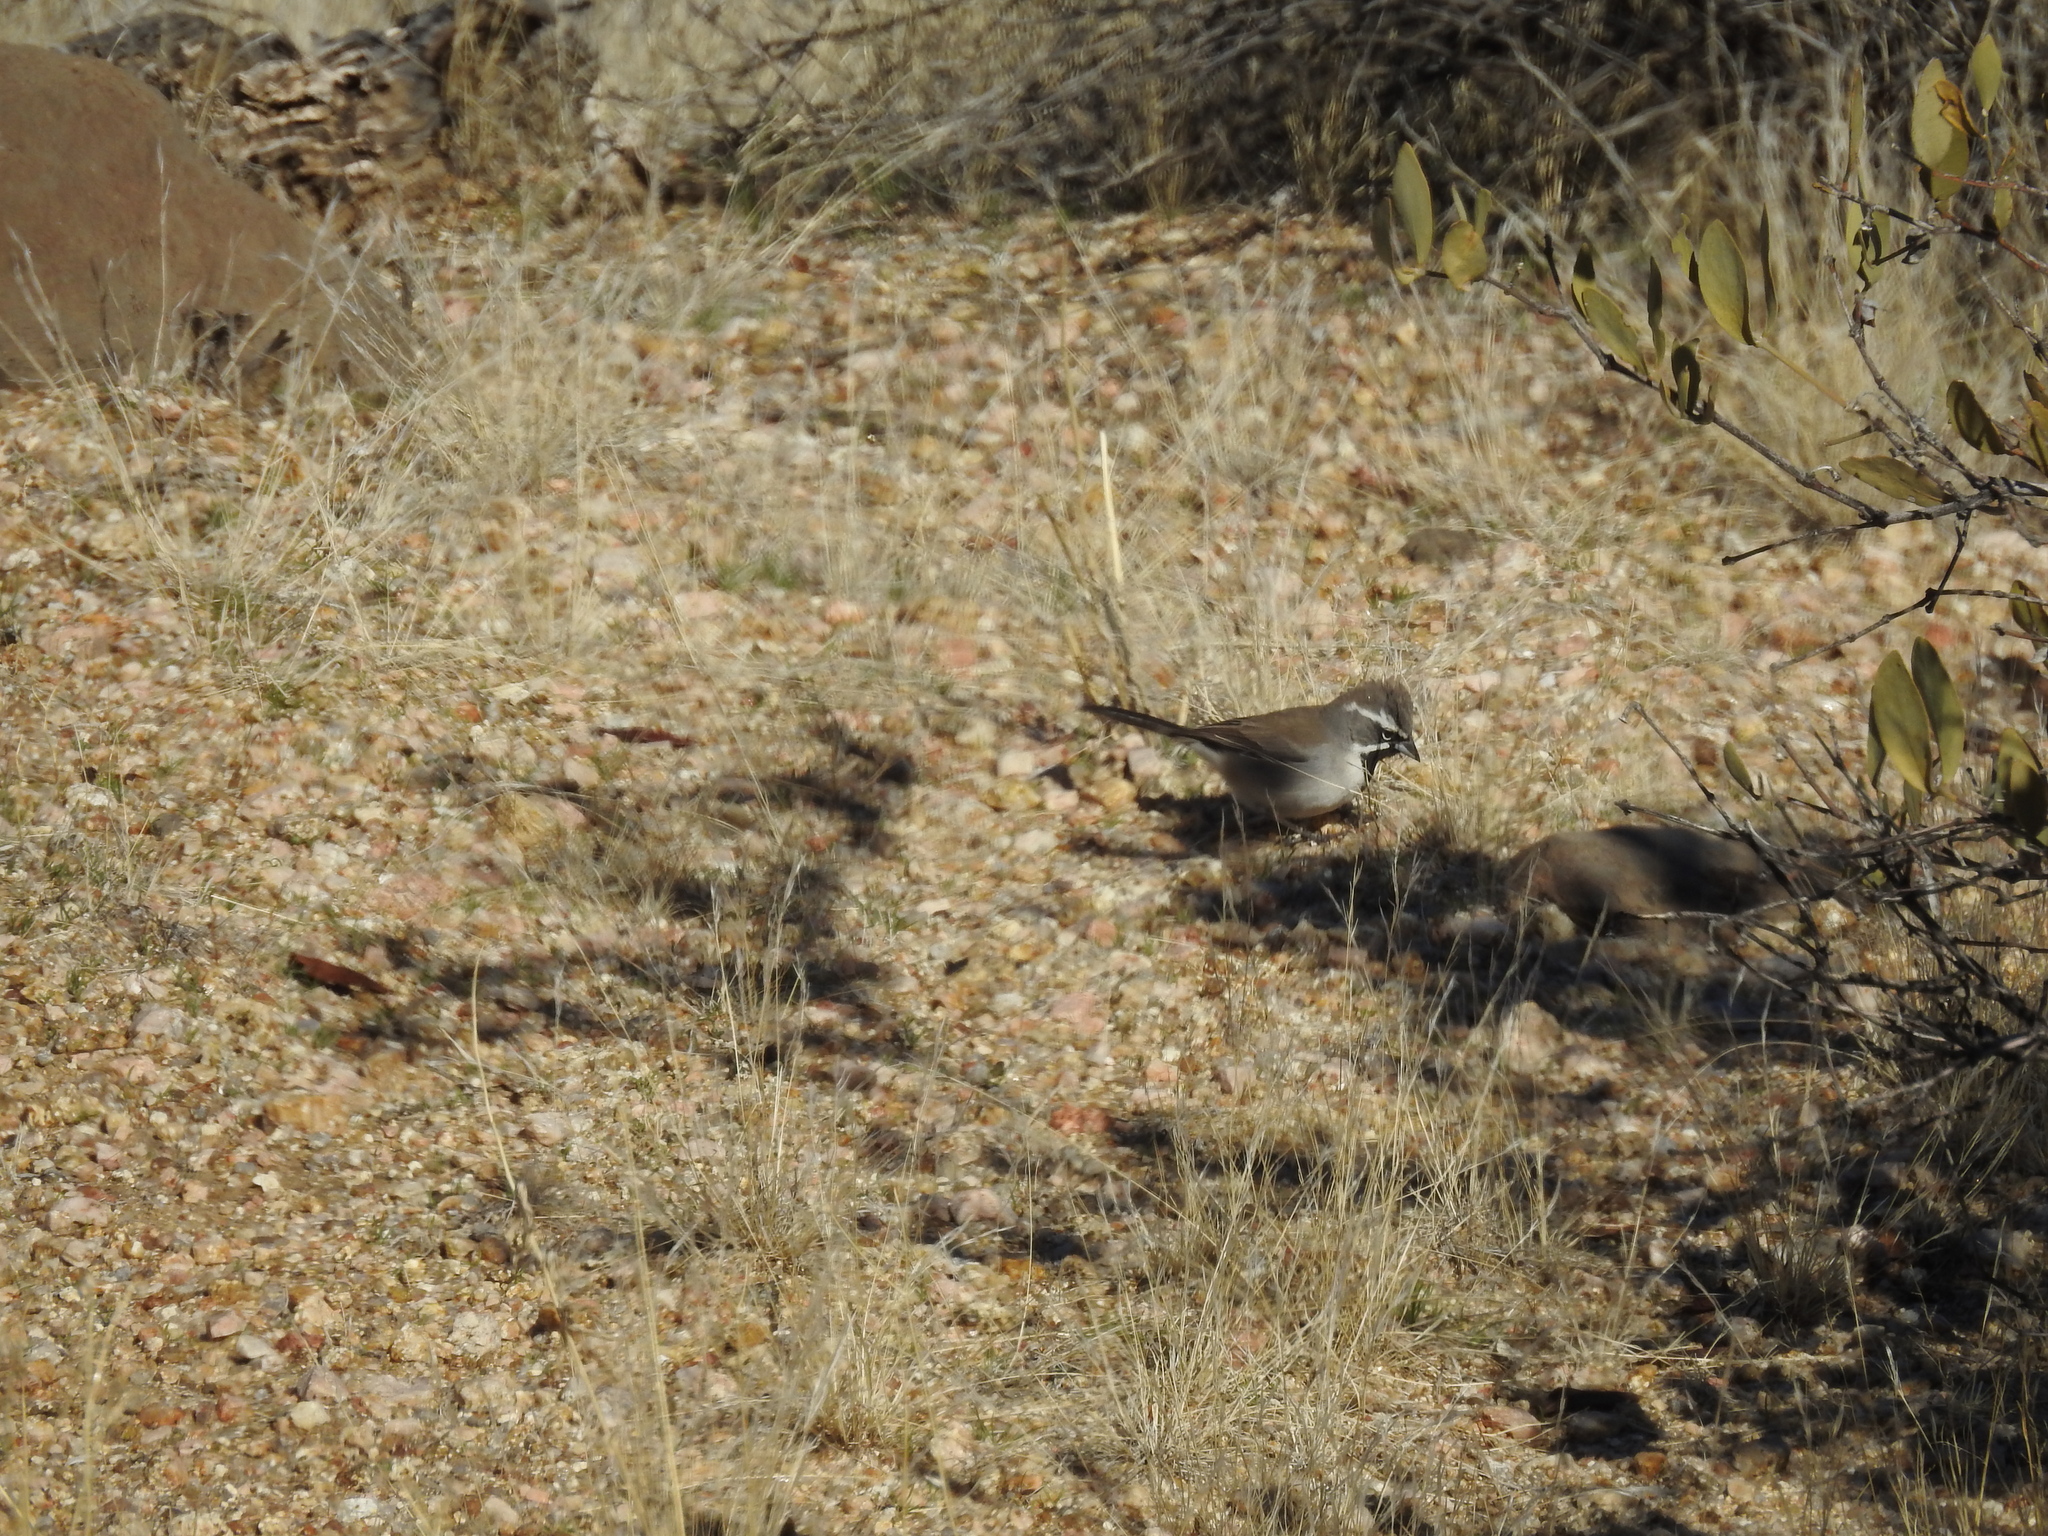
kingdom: Animalia
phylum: Chordata
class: Aves
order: Passeriformes
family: Passerellidae
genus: Amphispiza
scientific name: Amphispiza bilineata
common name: Black-throated sparrow
